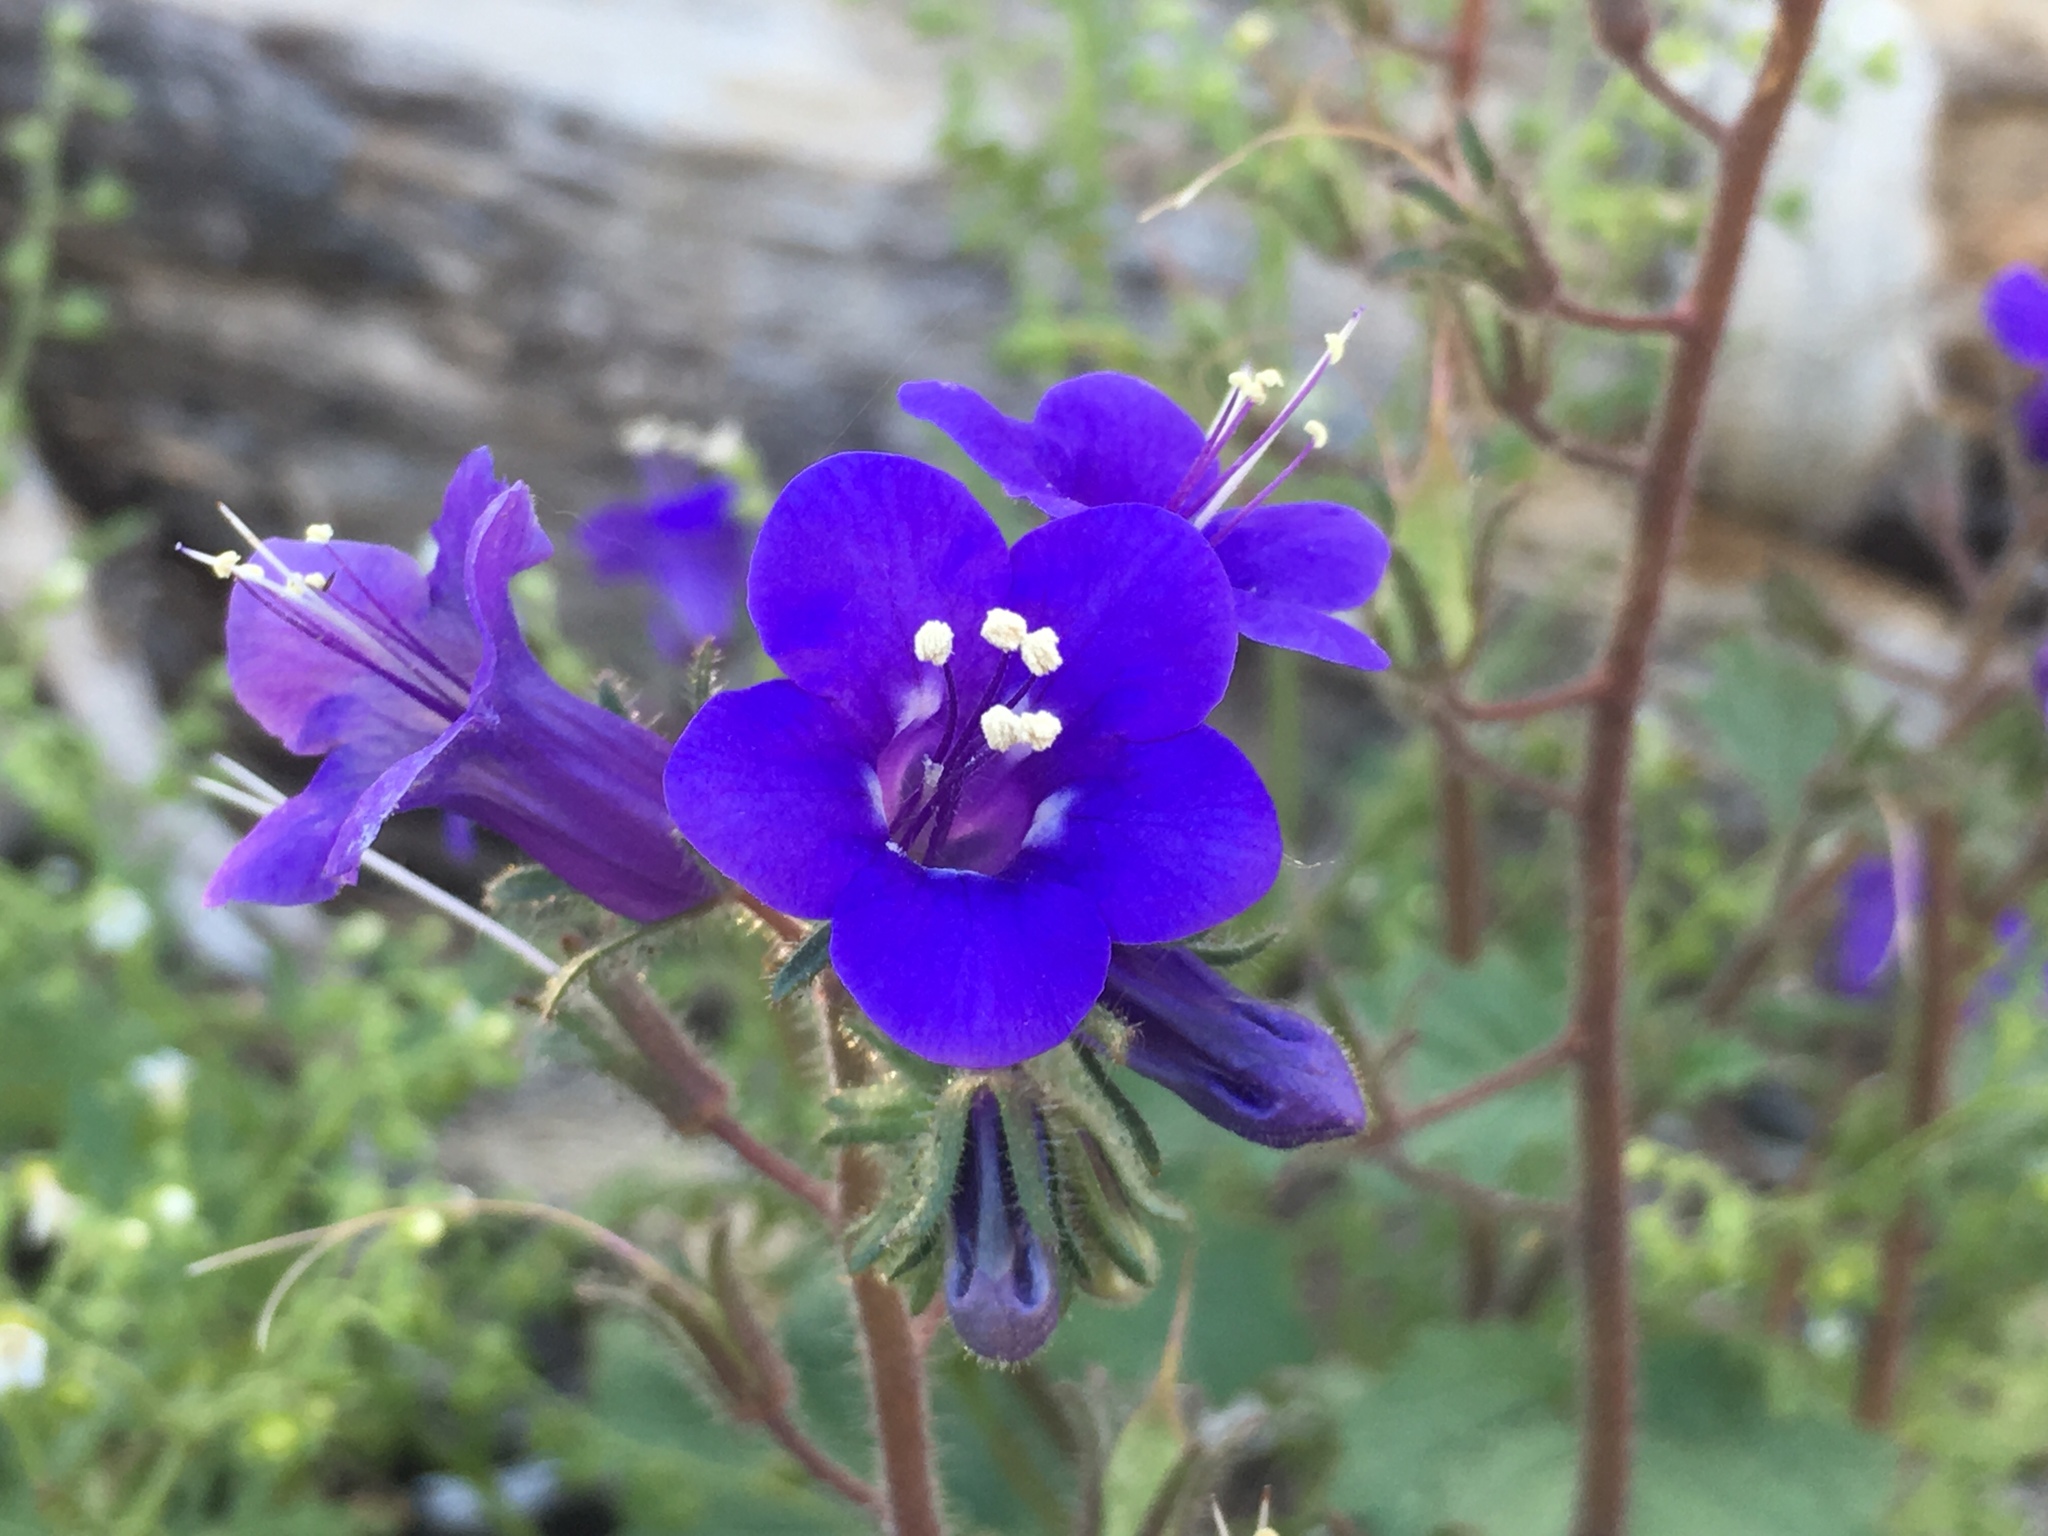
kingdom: Plantae
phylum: Tracheophyta
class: Magnoliopsida
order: Boraginales
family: Hydrophyllaceae
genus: Phacelia
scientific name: Phacelia minor
